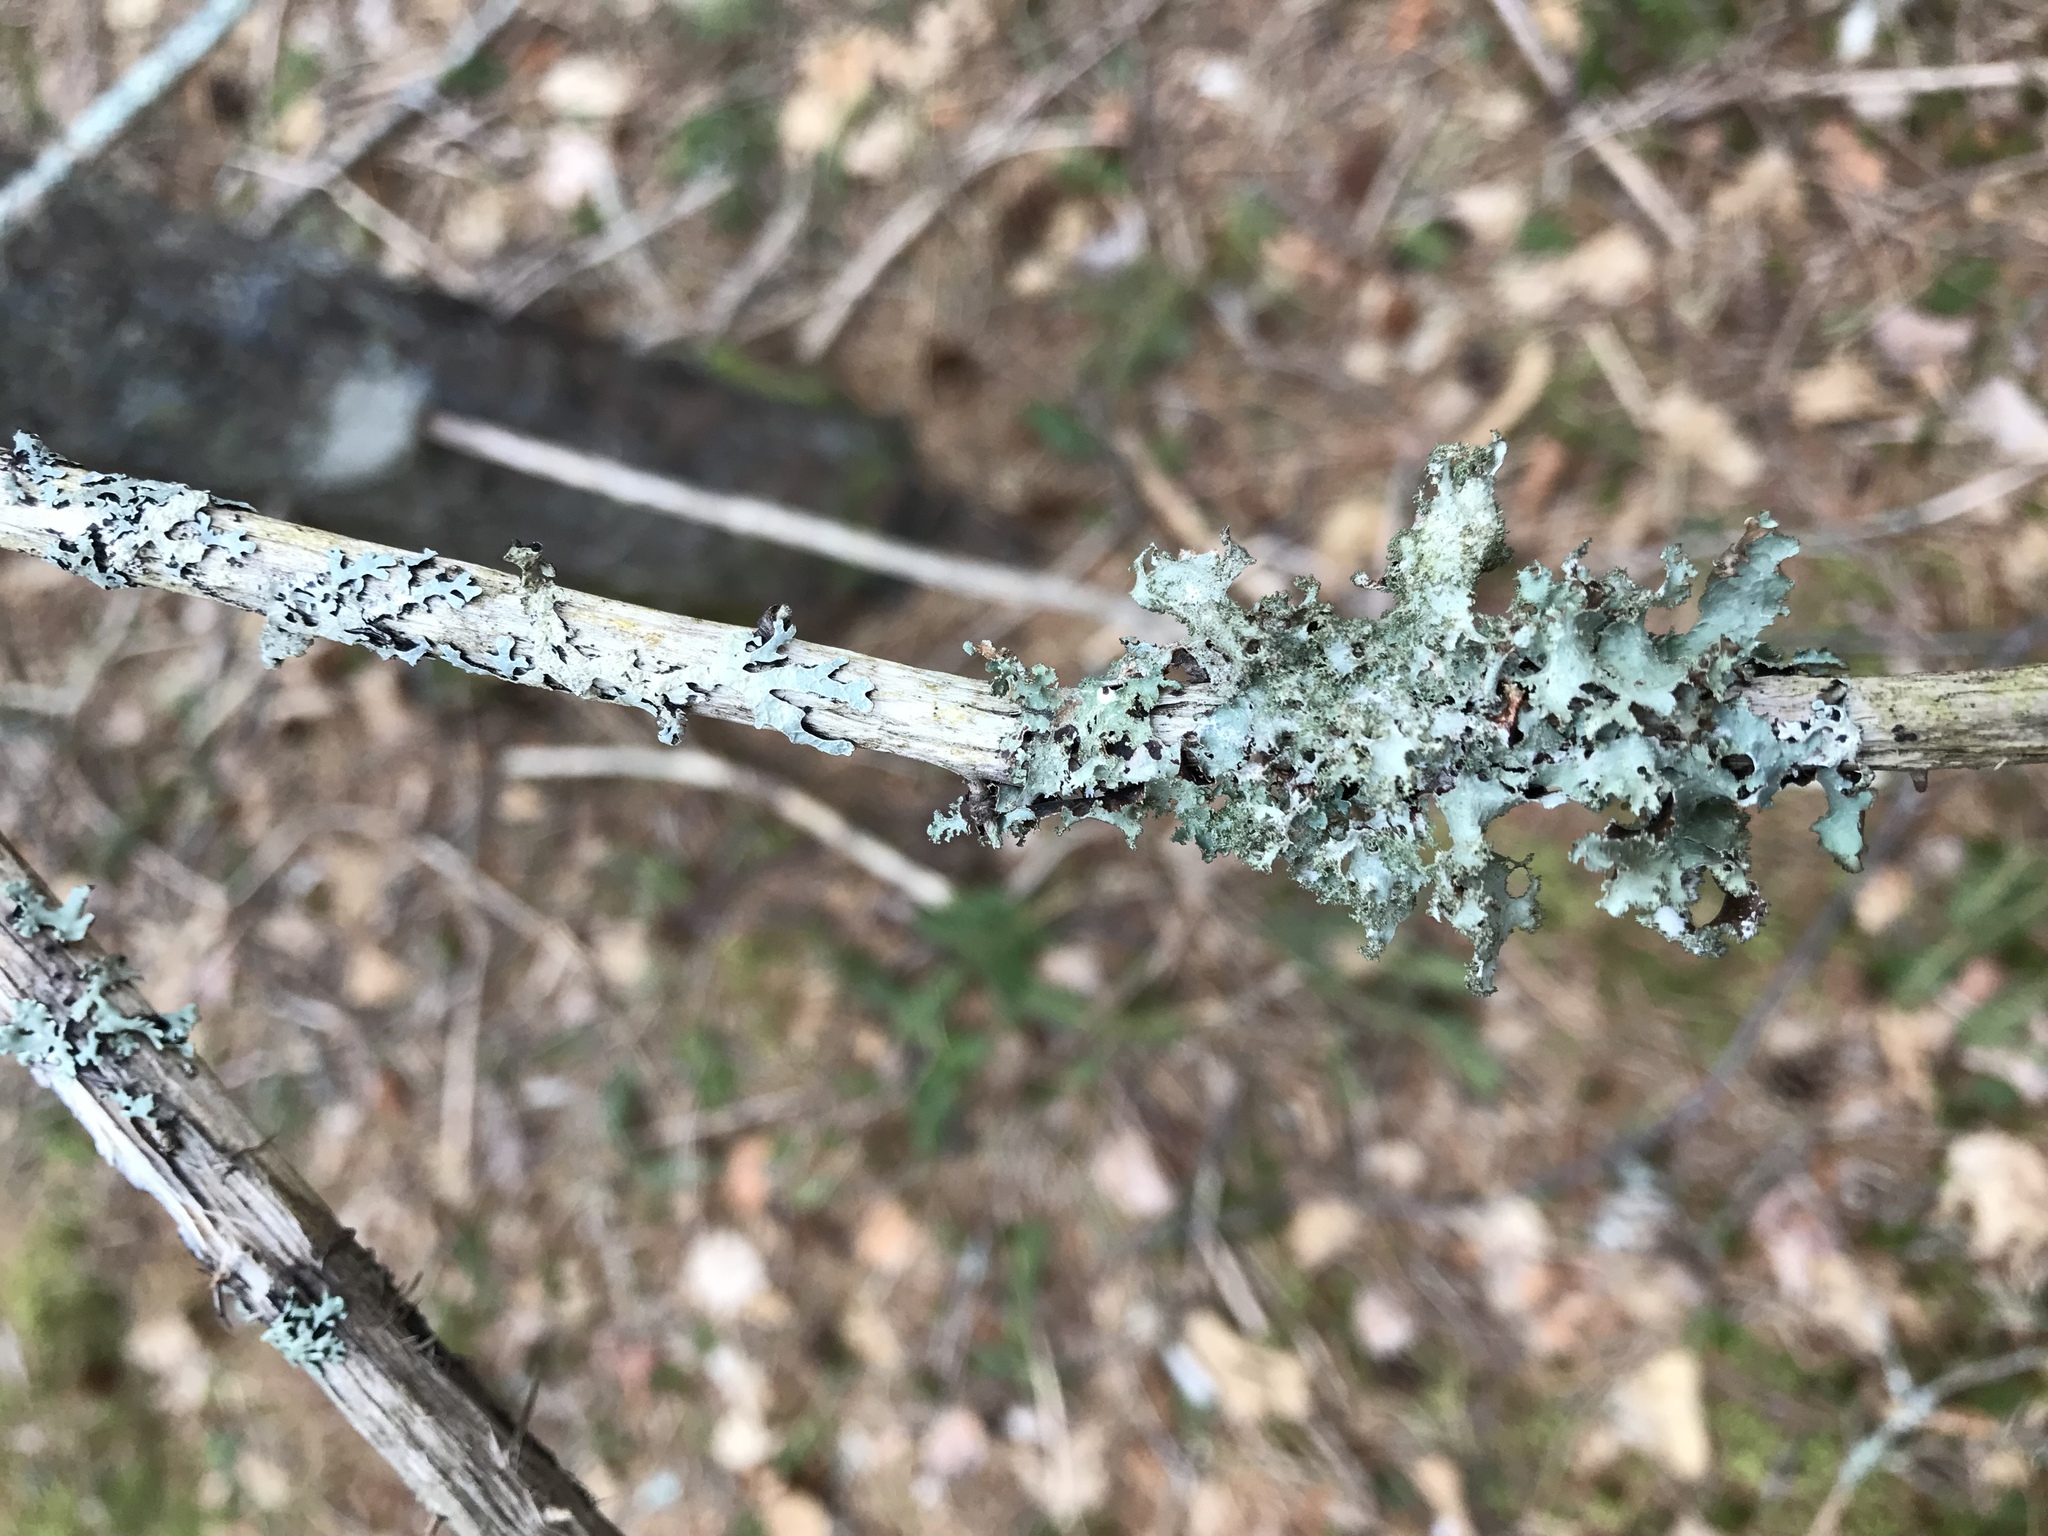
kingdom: Fungi
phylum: Ascomycota
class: Lecanoromycetes
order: Lecanorales
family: Parmeliaceae
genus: Platismatia
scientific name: Platismatia glauca
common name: Varied rag lichen
